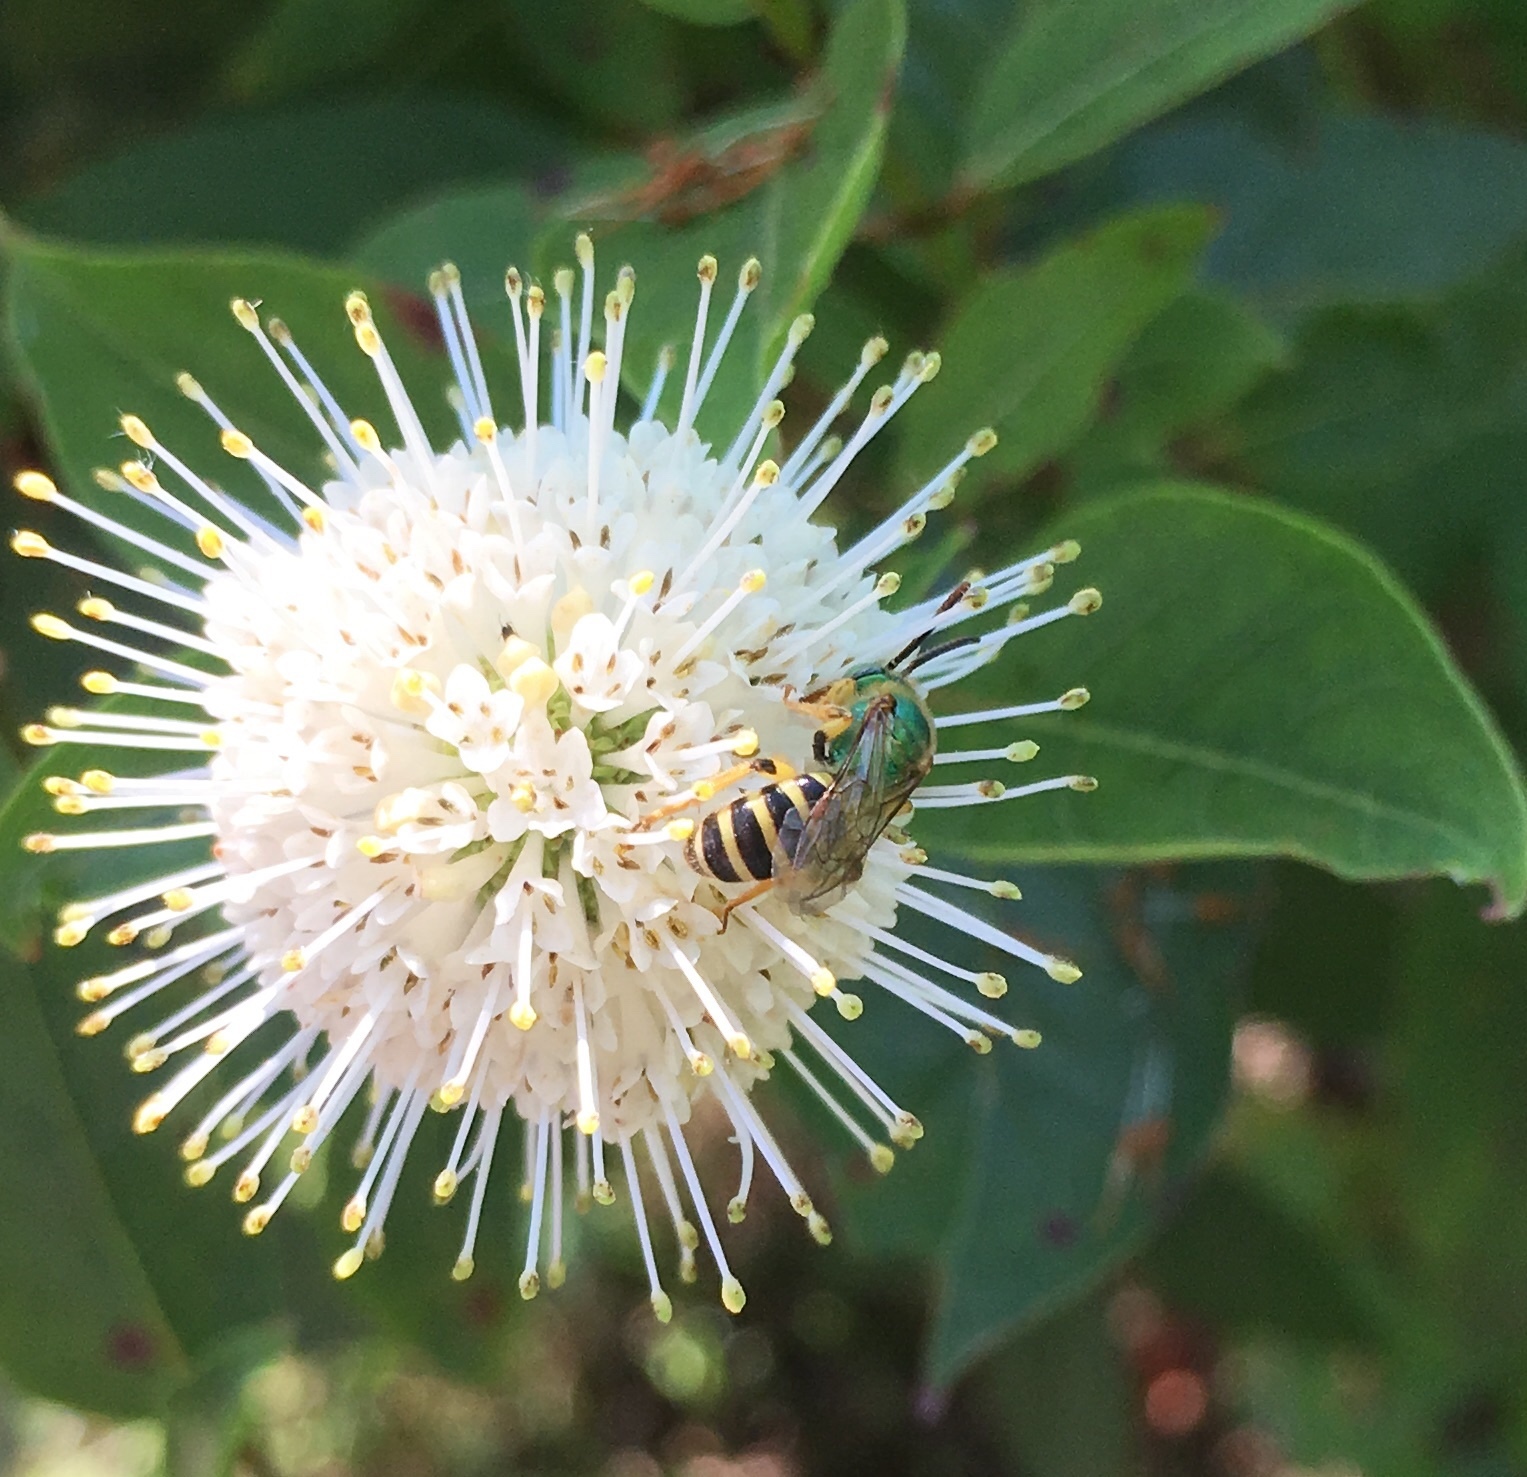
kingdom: Plantae
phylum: Tracheophyta
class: Magnoliopsida
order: Gentianales
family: Rubiaceae
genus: Cephalanthus
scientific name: Cephalanthus occidentalis
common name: Button-willow
